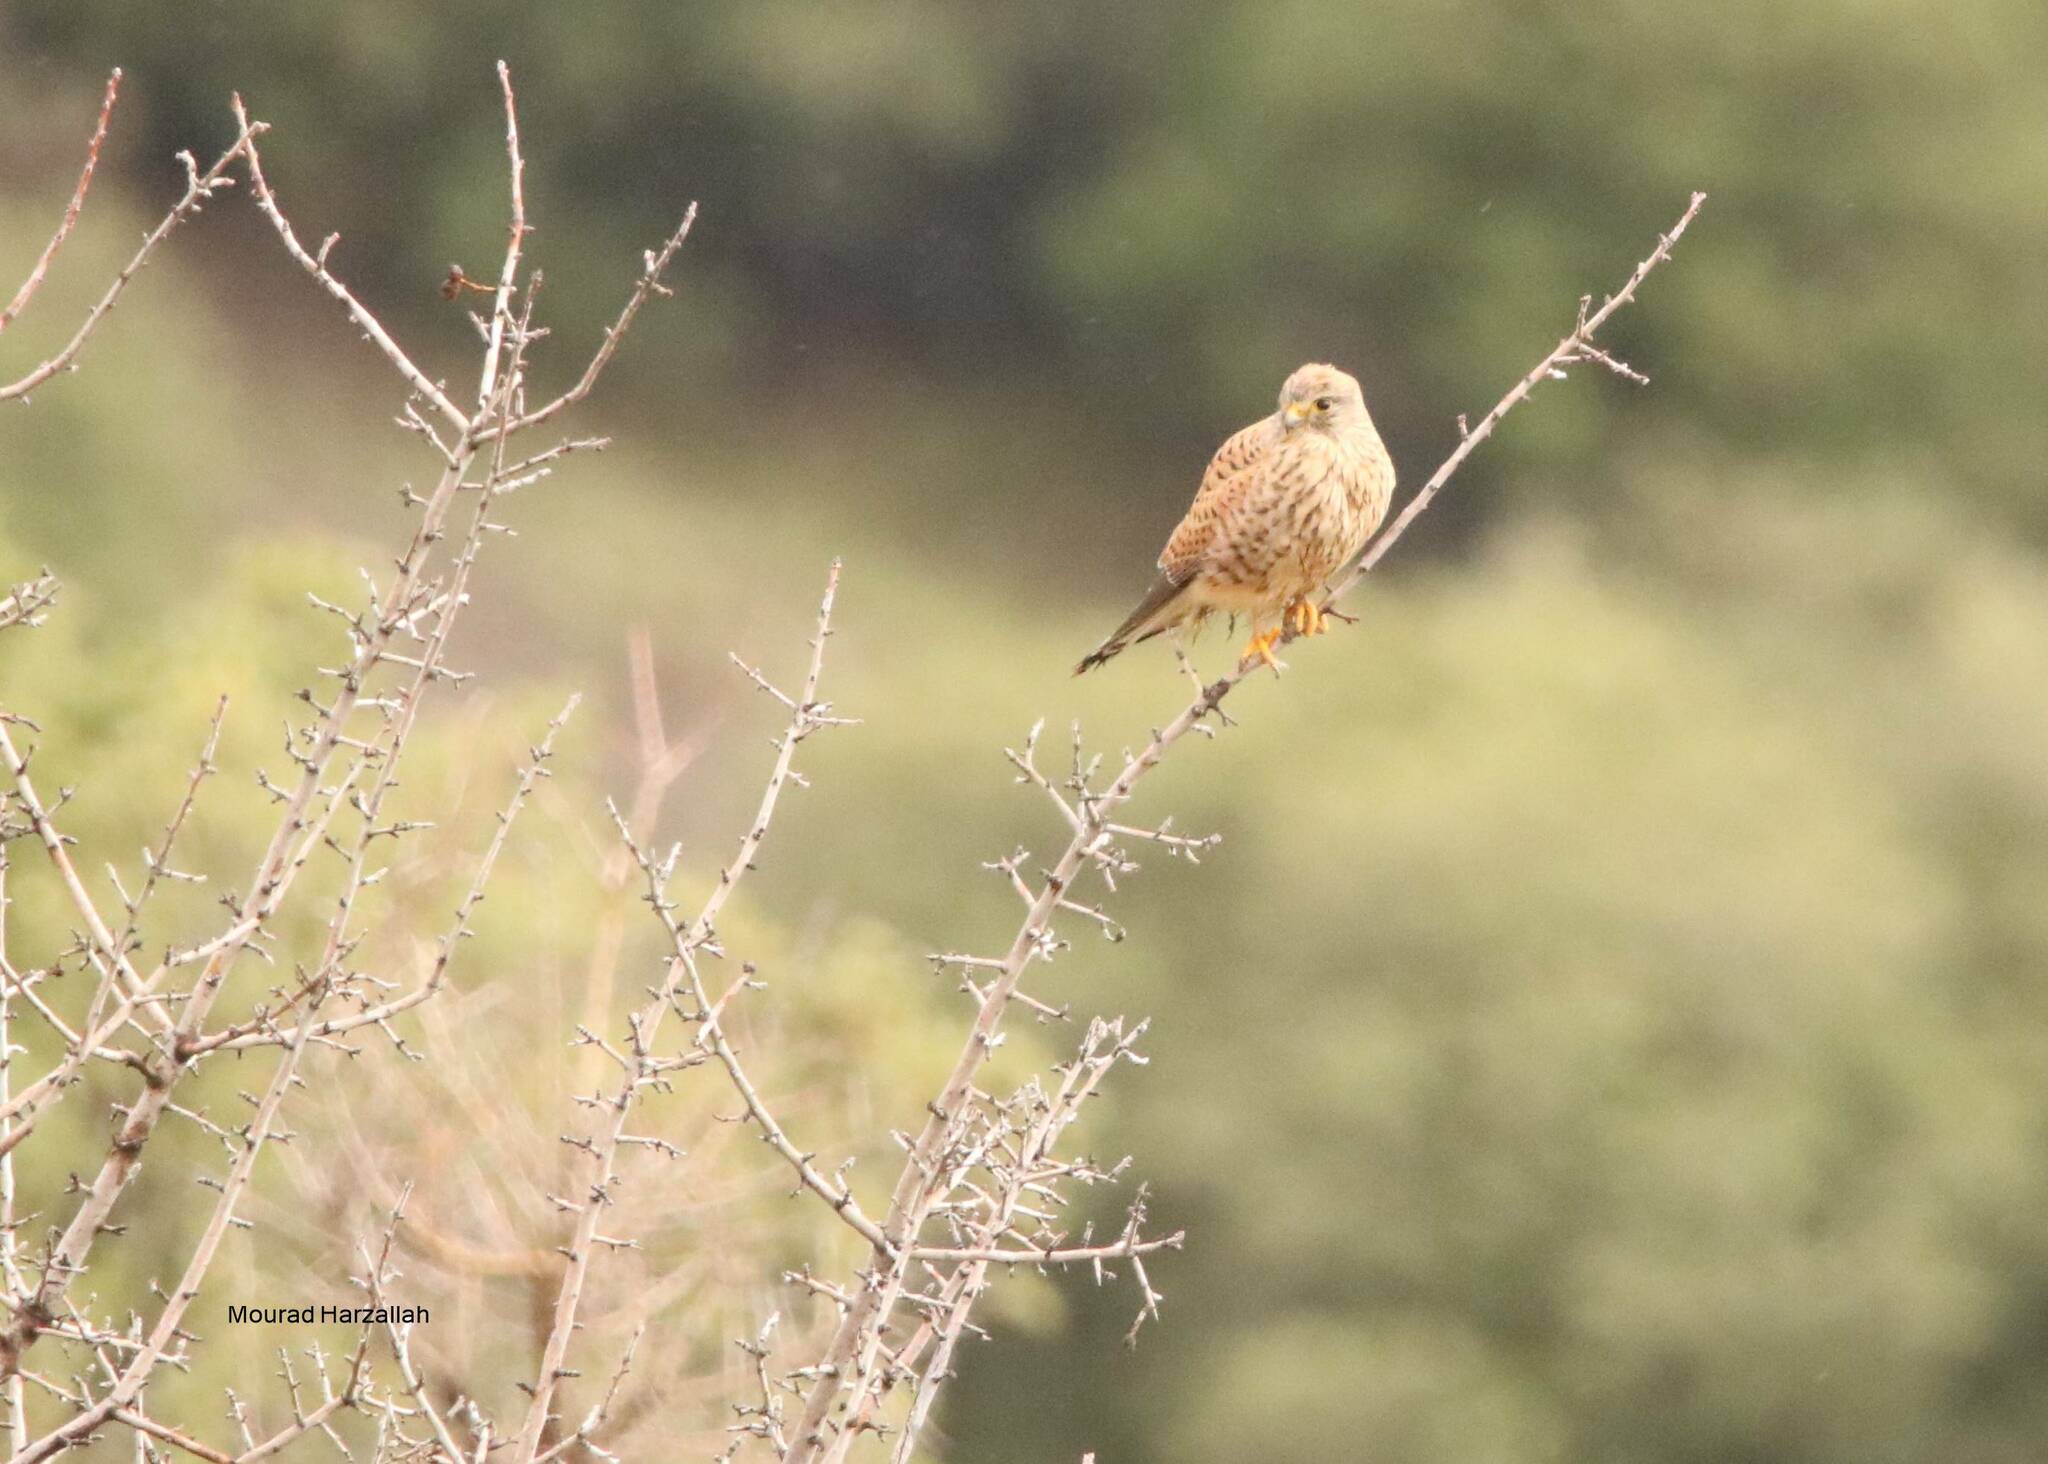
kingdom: Animalia
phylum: Chordata
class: Aves
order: Falconiformes
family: Falconidae
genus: Falco
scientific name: Falco tinnunculus
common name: Common kestrel
